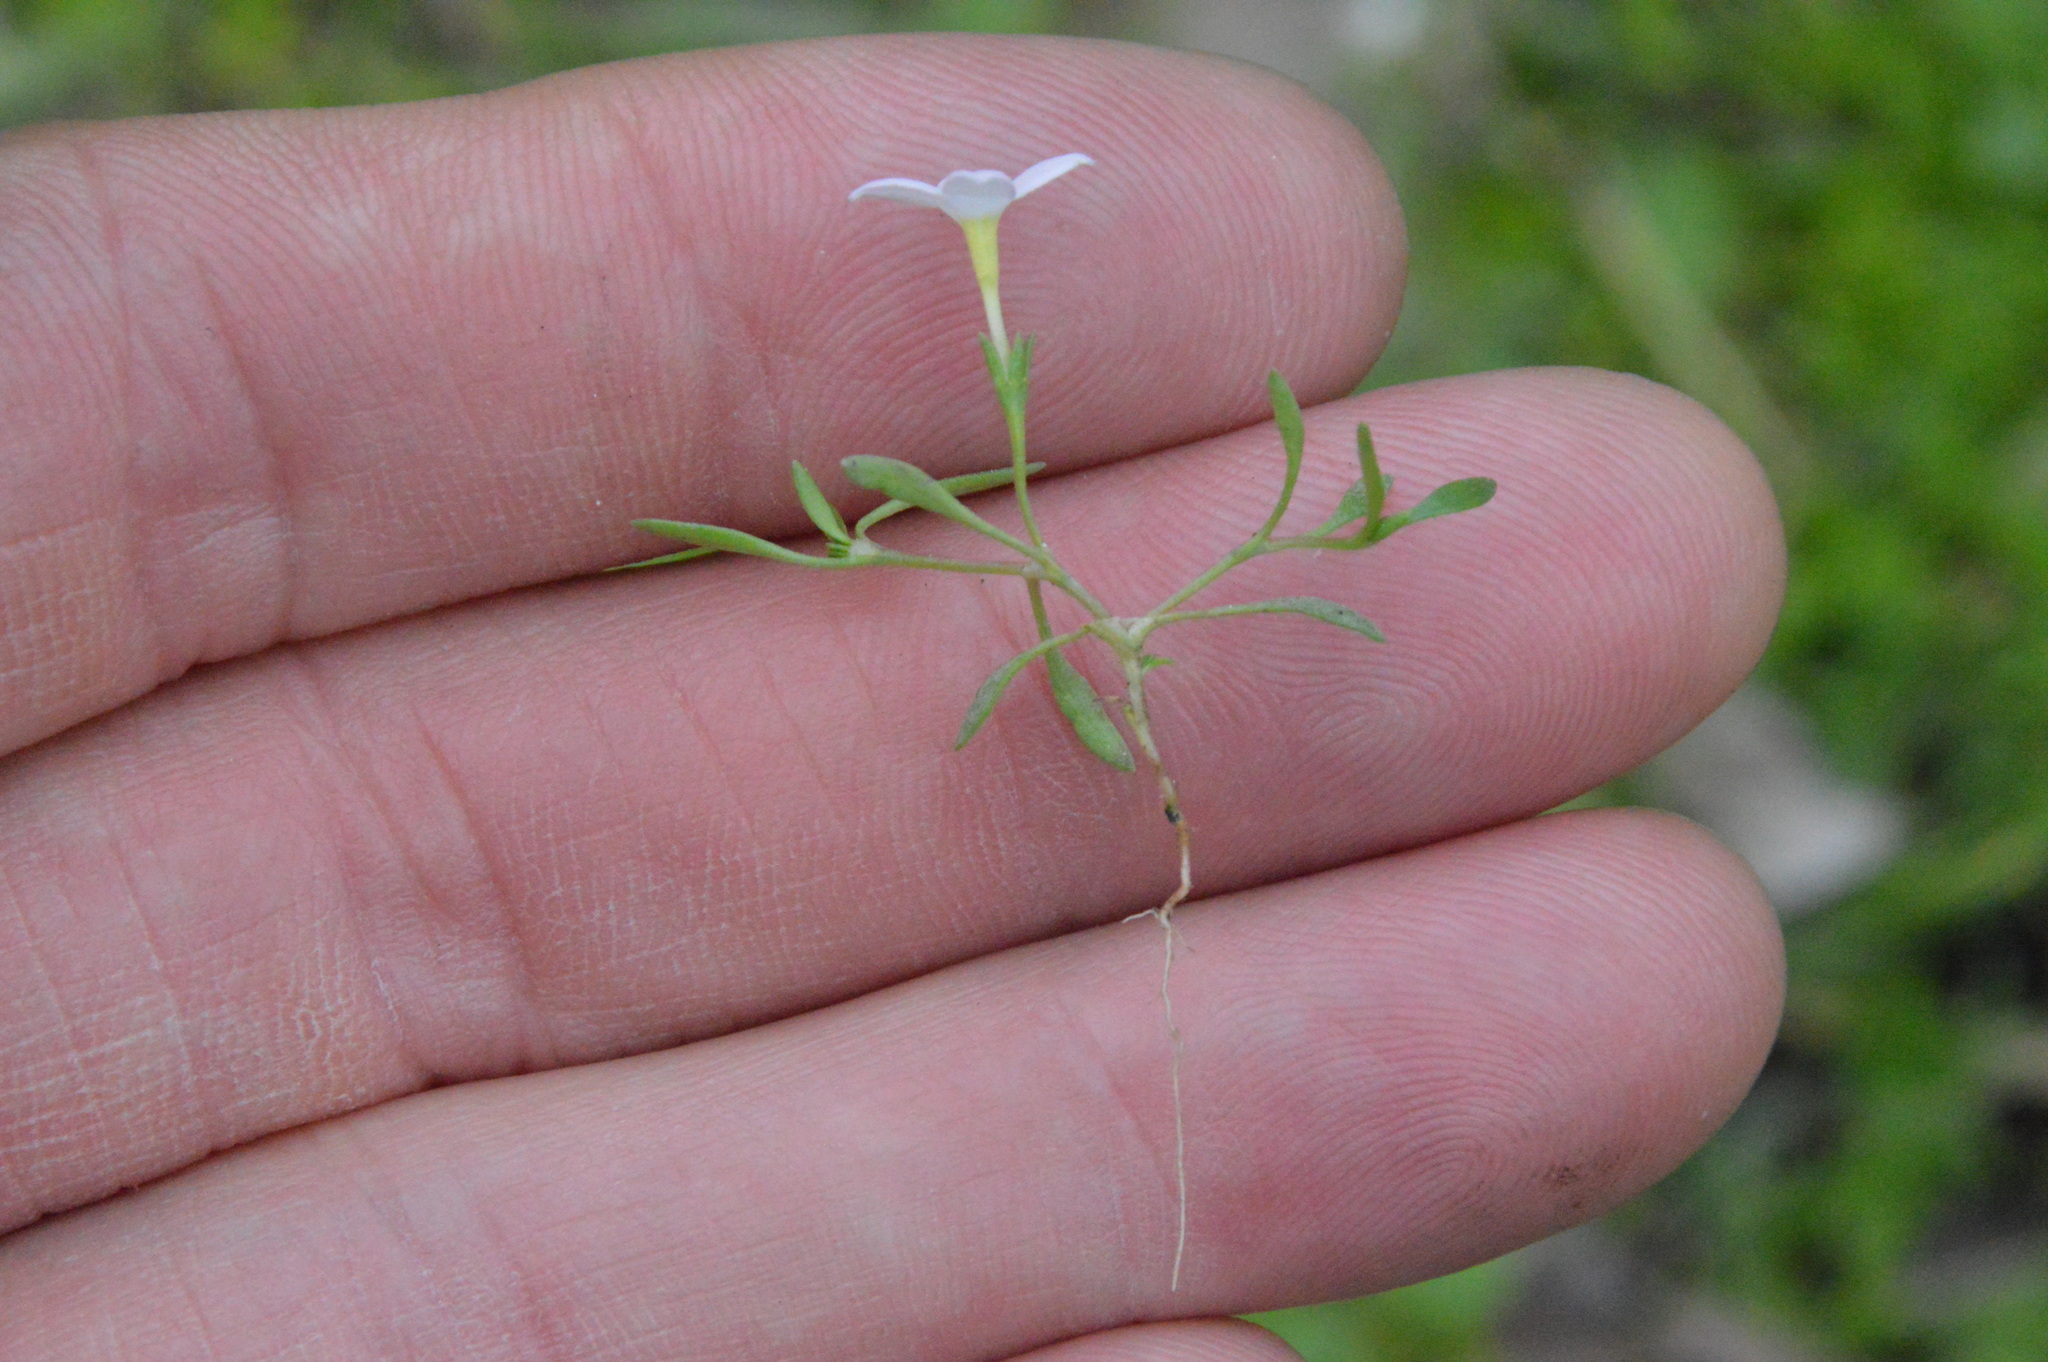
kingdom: Plantae
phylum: Tracheophyta
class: Magnoliopsida
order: Gentianales
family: Rubiaceae
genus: Houstonia
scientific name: Houstonia rosea
